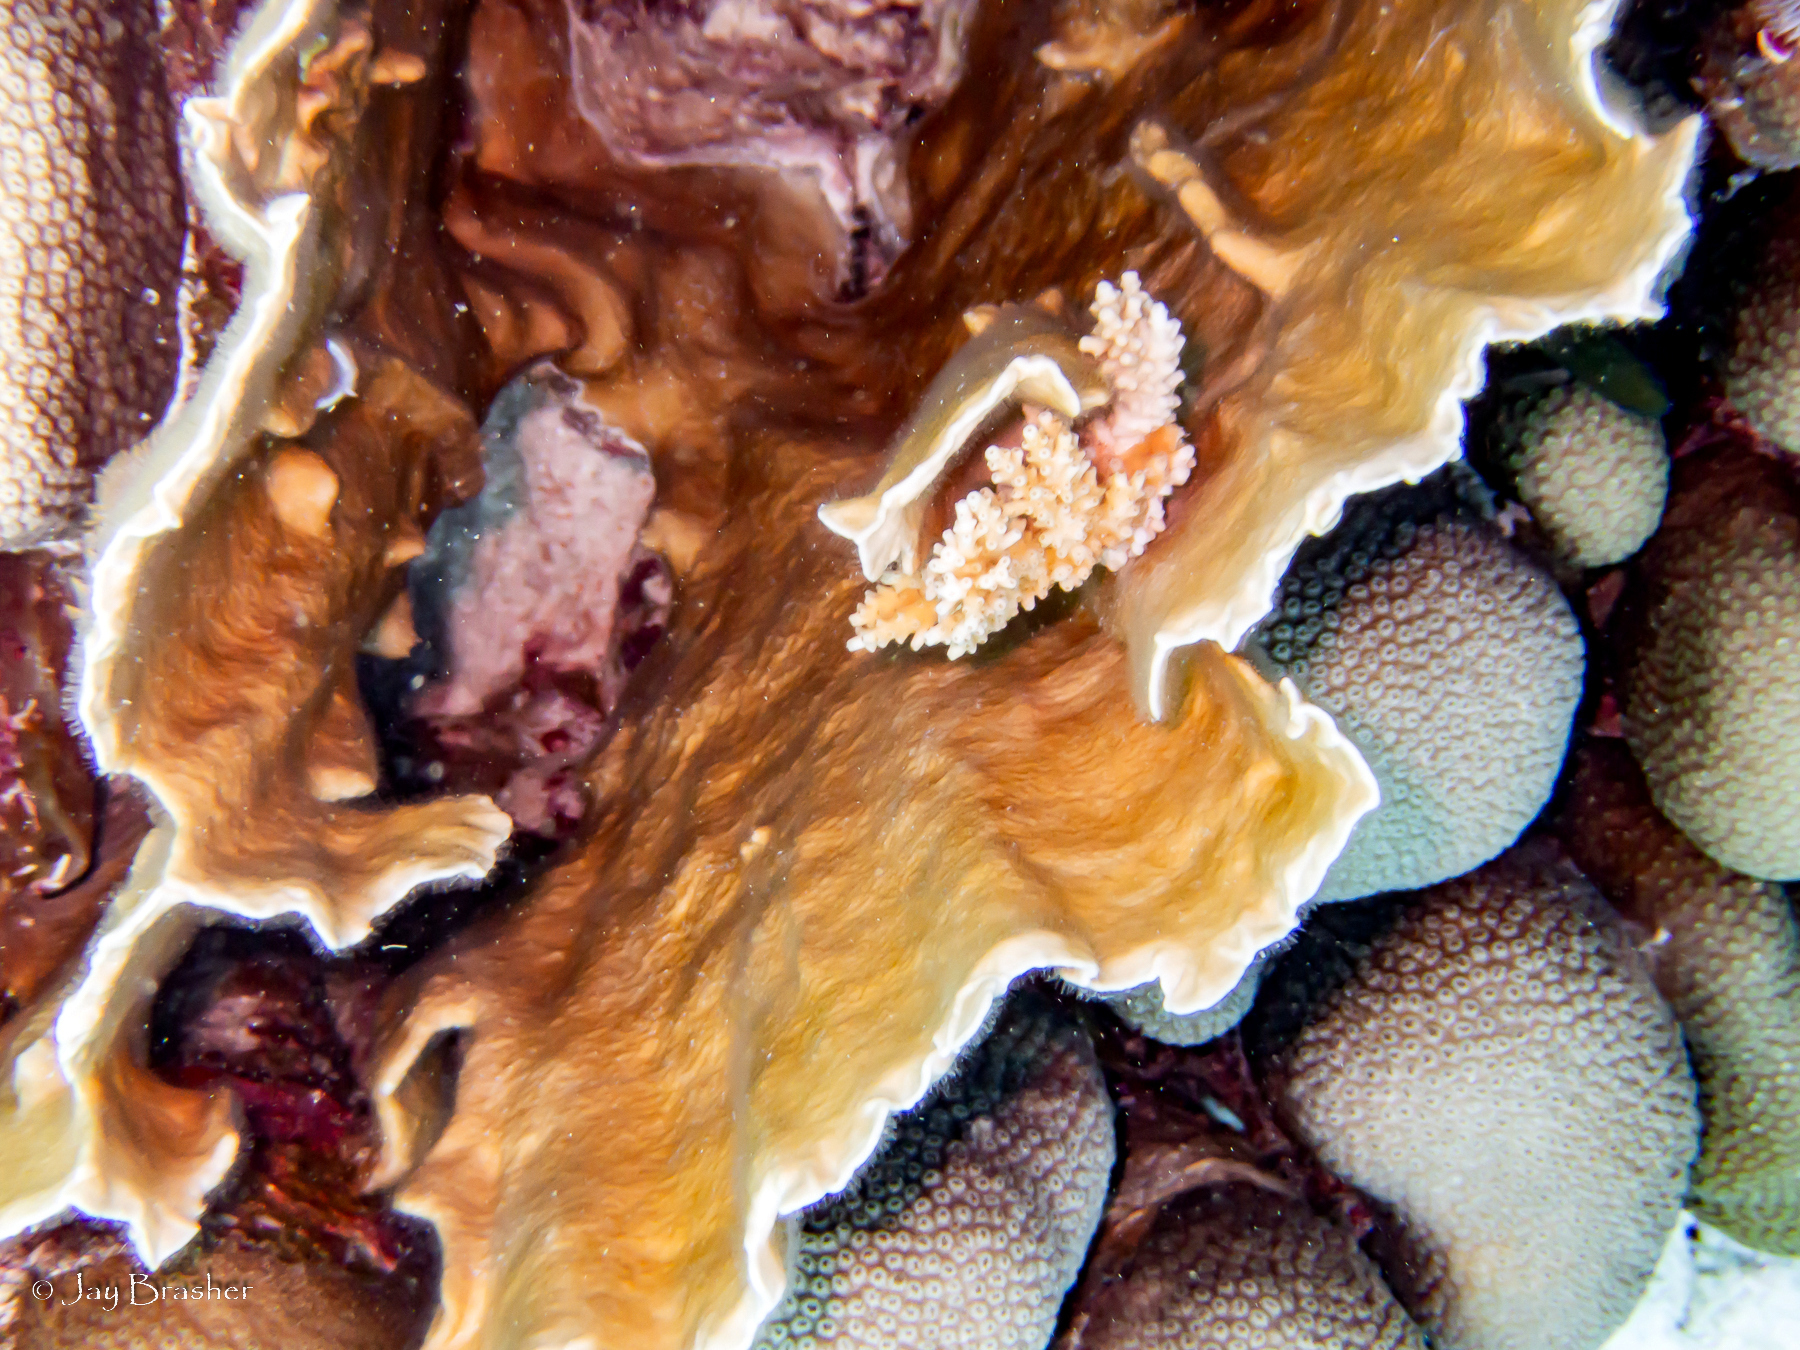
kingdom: Animalia
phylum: Cnidaria
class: Anthozoa
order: Scleractinia
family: Merulinidae
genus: Orbicella
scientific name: Orbicella annularis
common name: Boulder star coral
